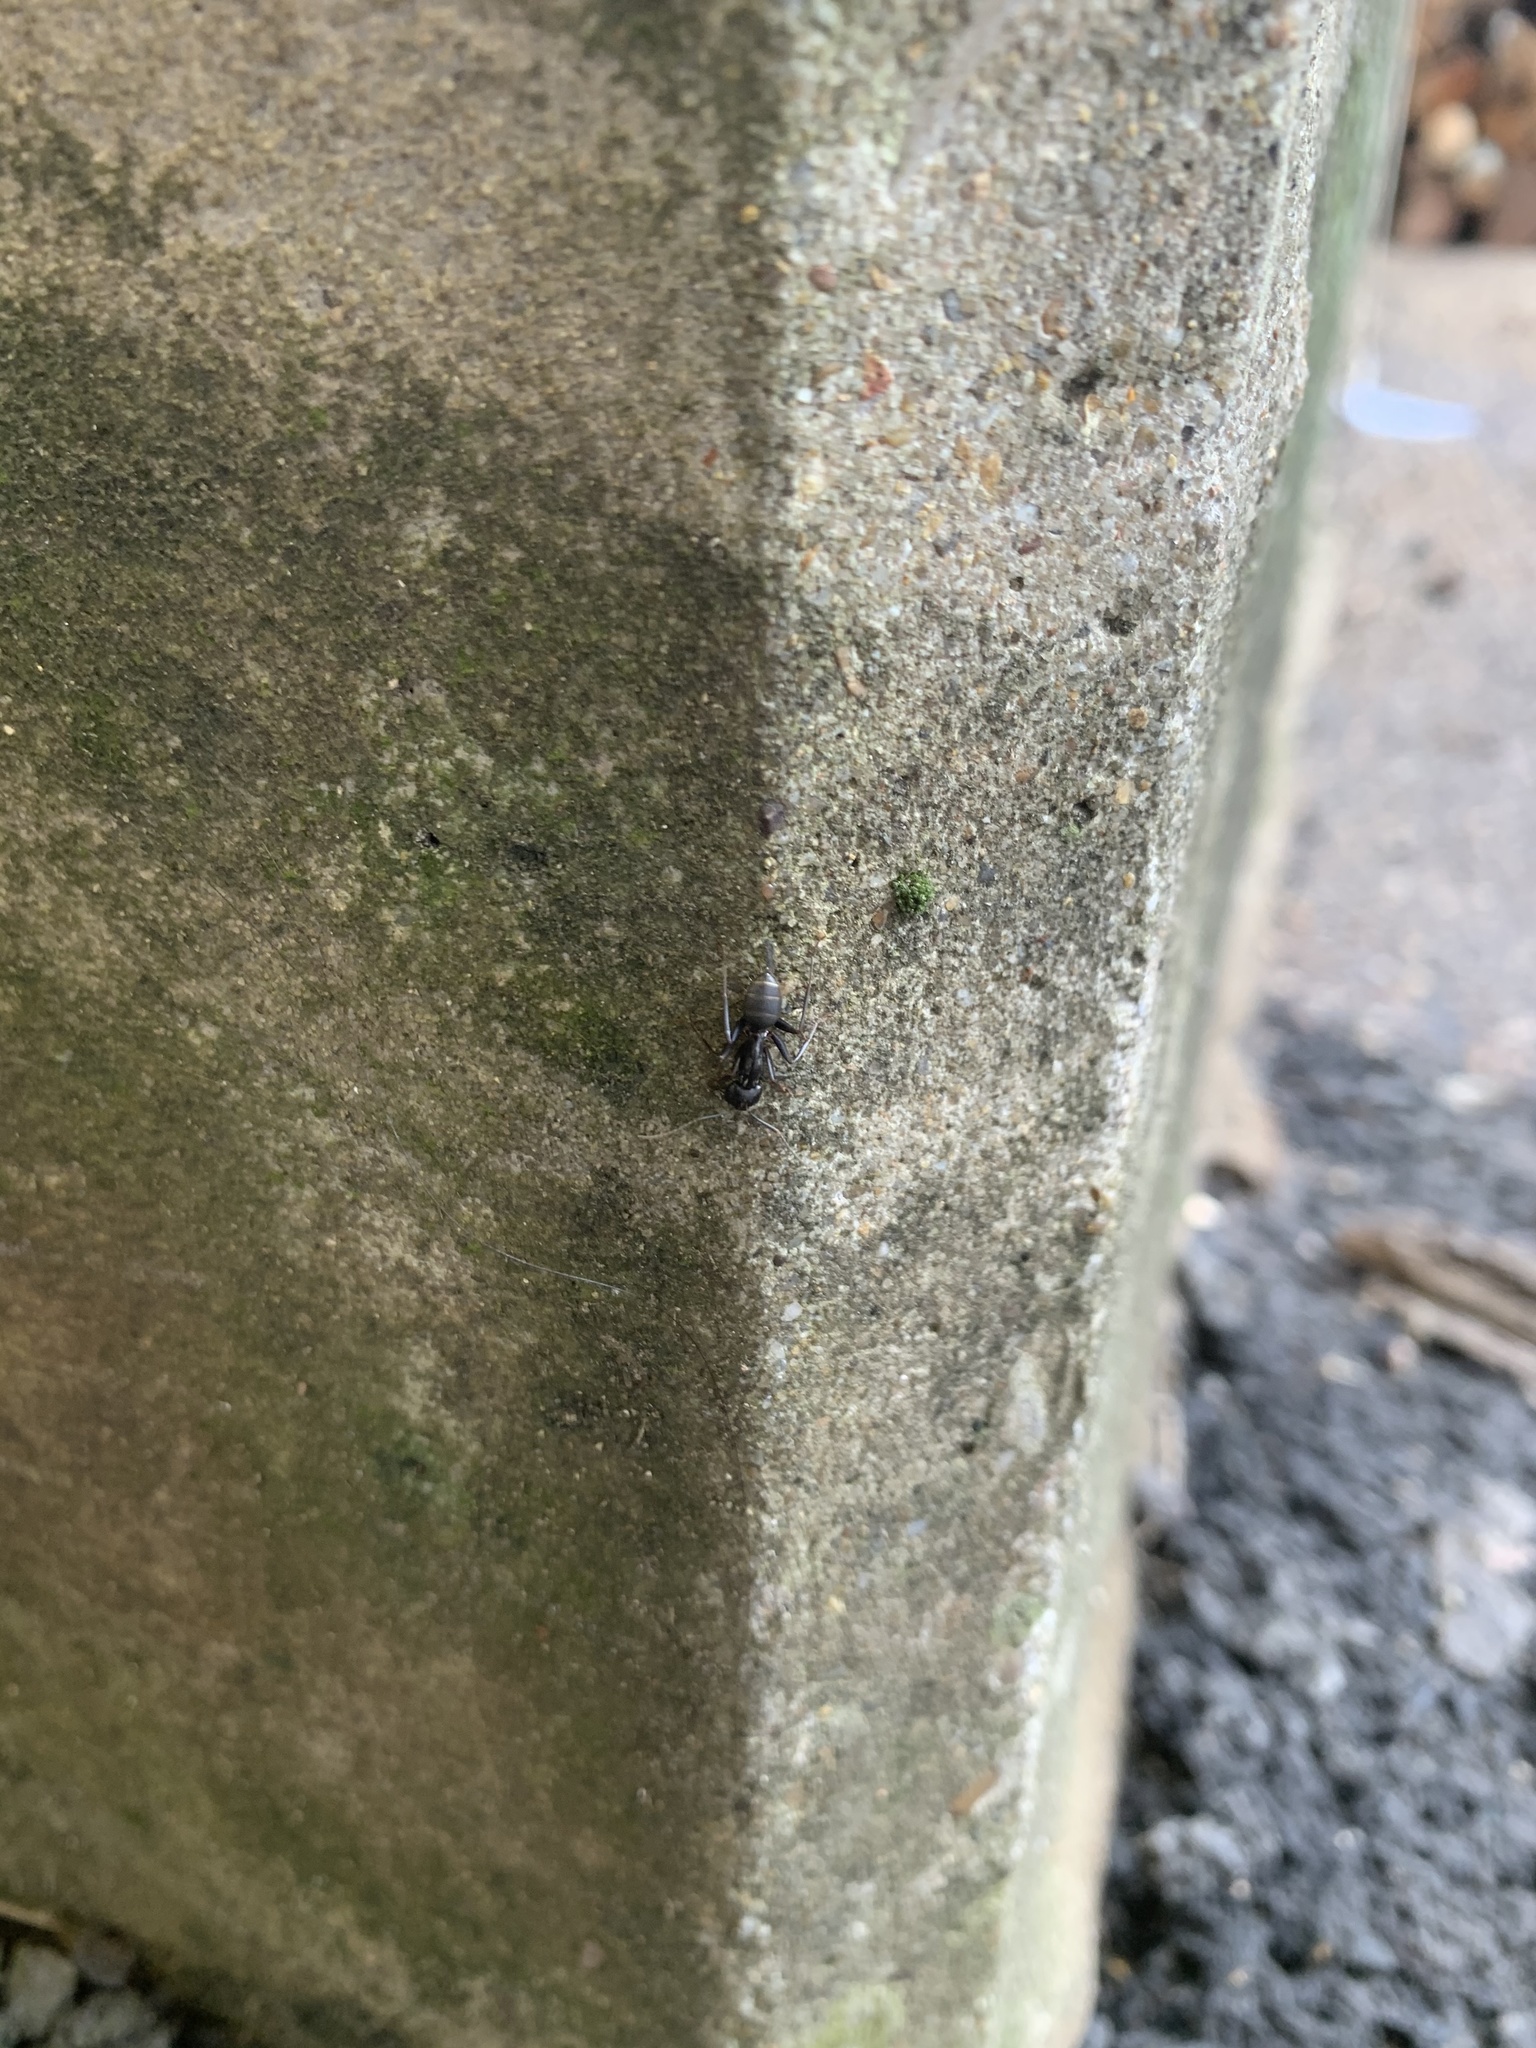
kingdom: Animalia
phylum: Arthropoda
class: Insecta
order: Hymenoptera
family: Formicidae
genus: Camponotus
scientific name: Camponotus pennsylvanicus
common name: Black carpenter ant
